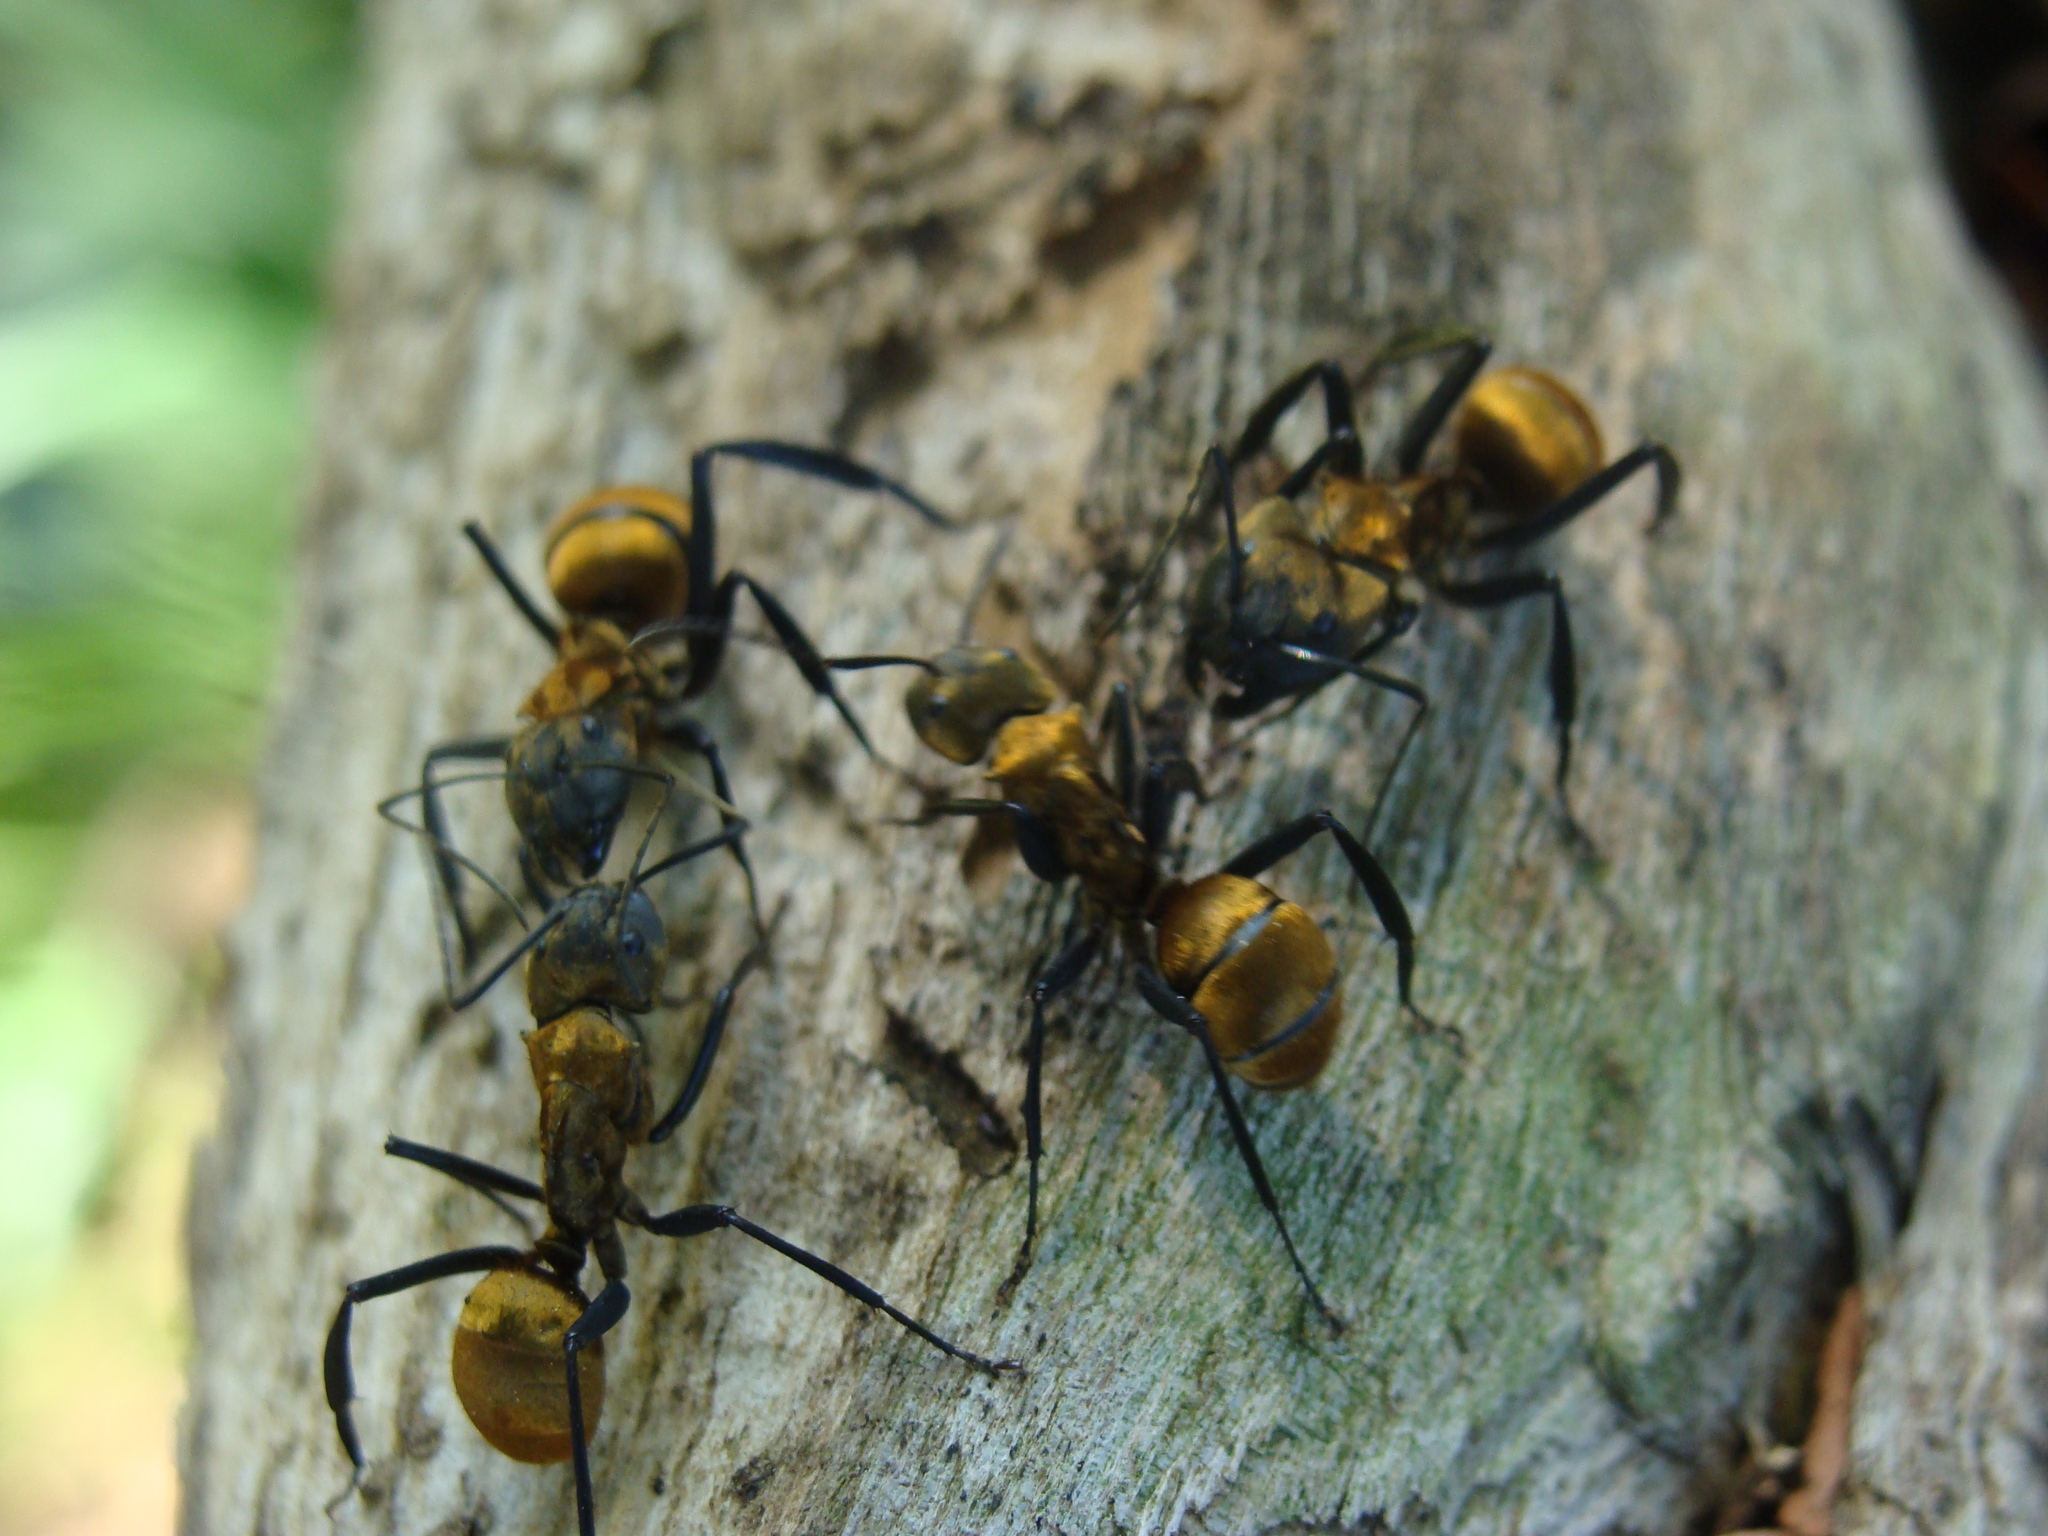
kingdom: Animalia
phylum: Arthropoda
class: Insecta
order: Hymenoptera
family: Formicidae
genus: Camponotus
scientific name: Camponotus sericeiventris
